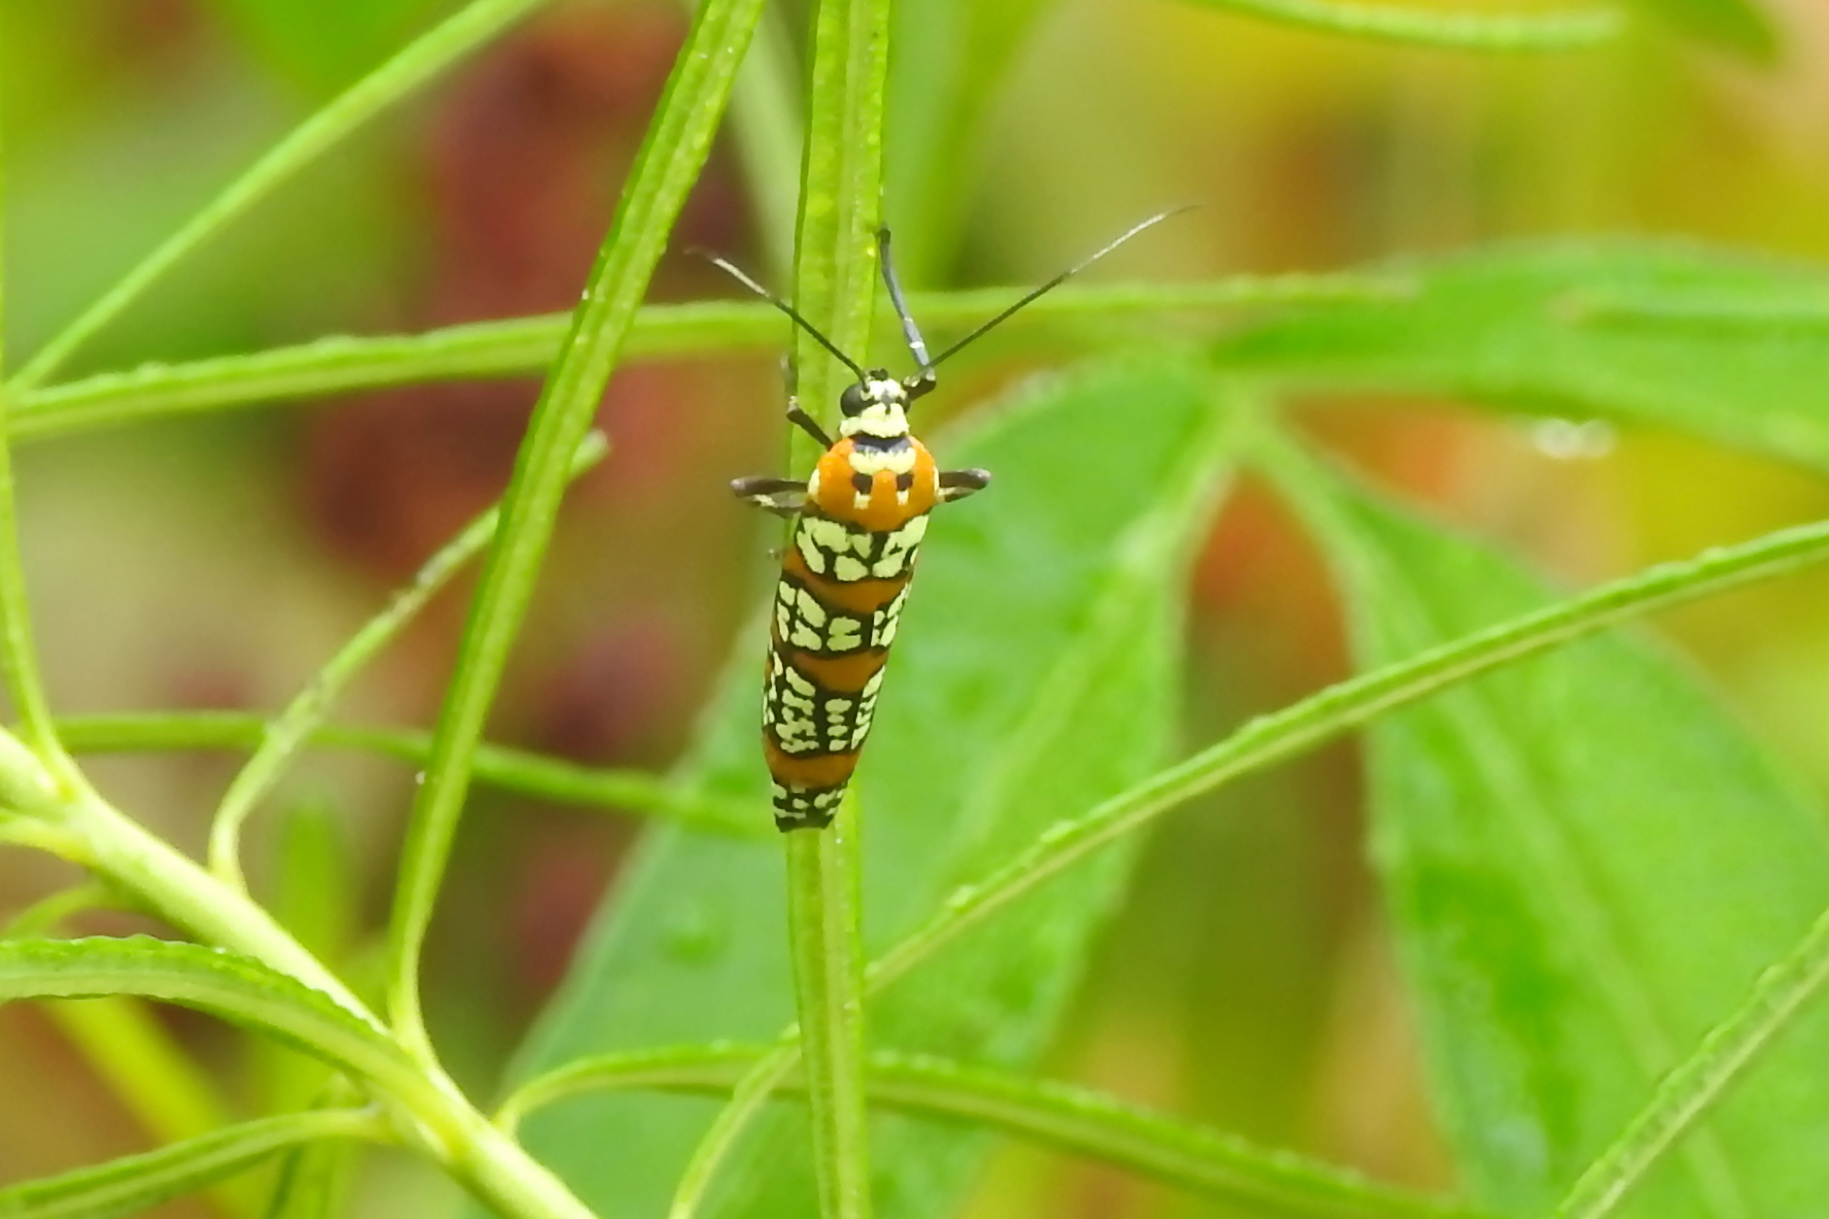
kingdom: Animalia
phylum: Arthropoda
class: Insecta
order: Lepidoptera
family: Attevidae
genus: Atteva
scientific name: Atteva punctella
